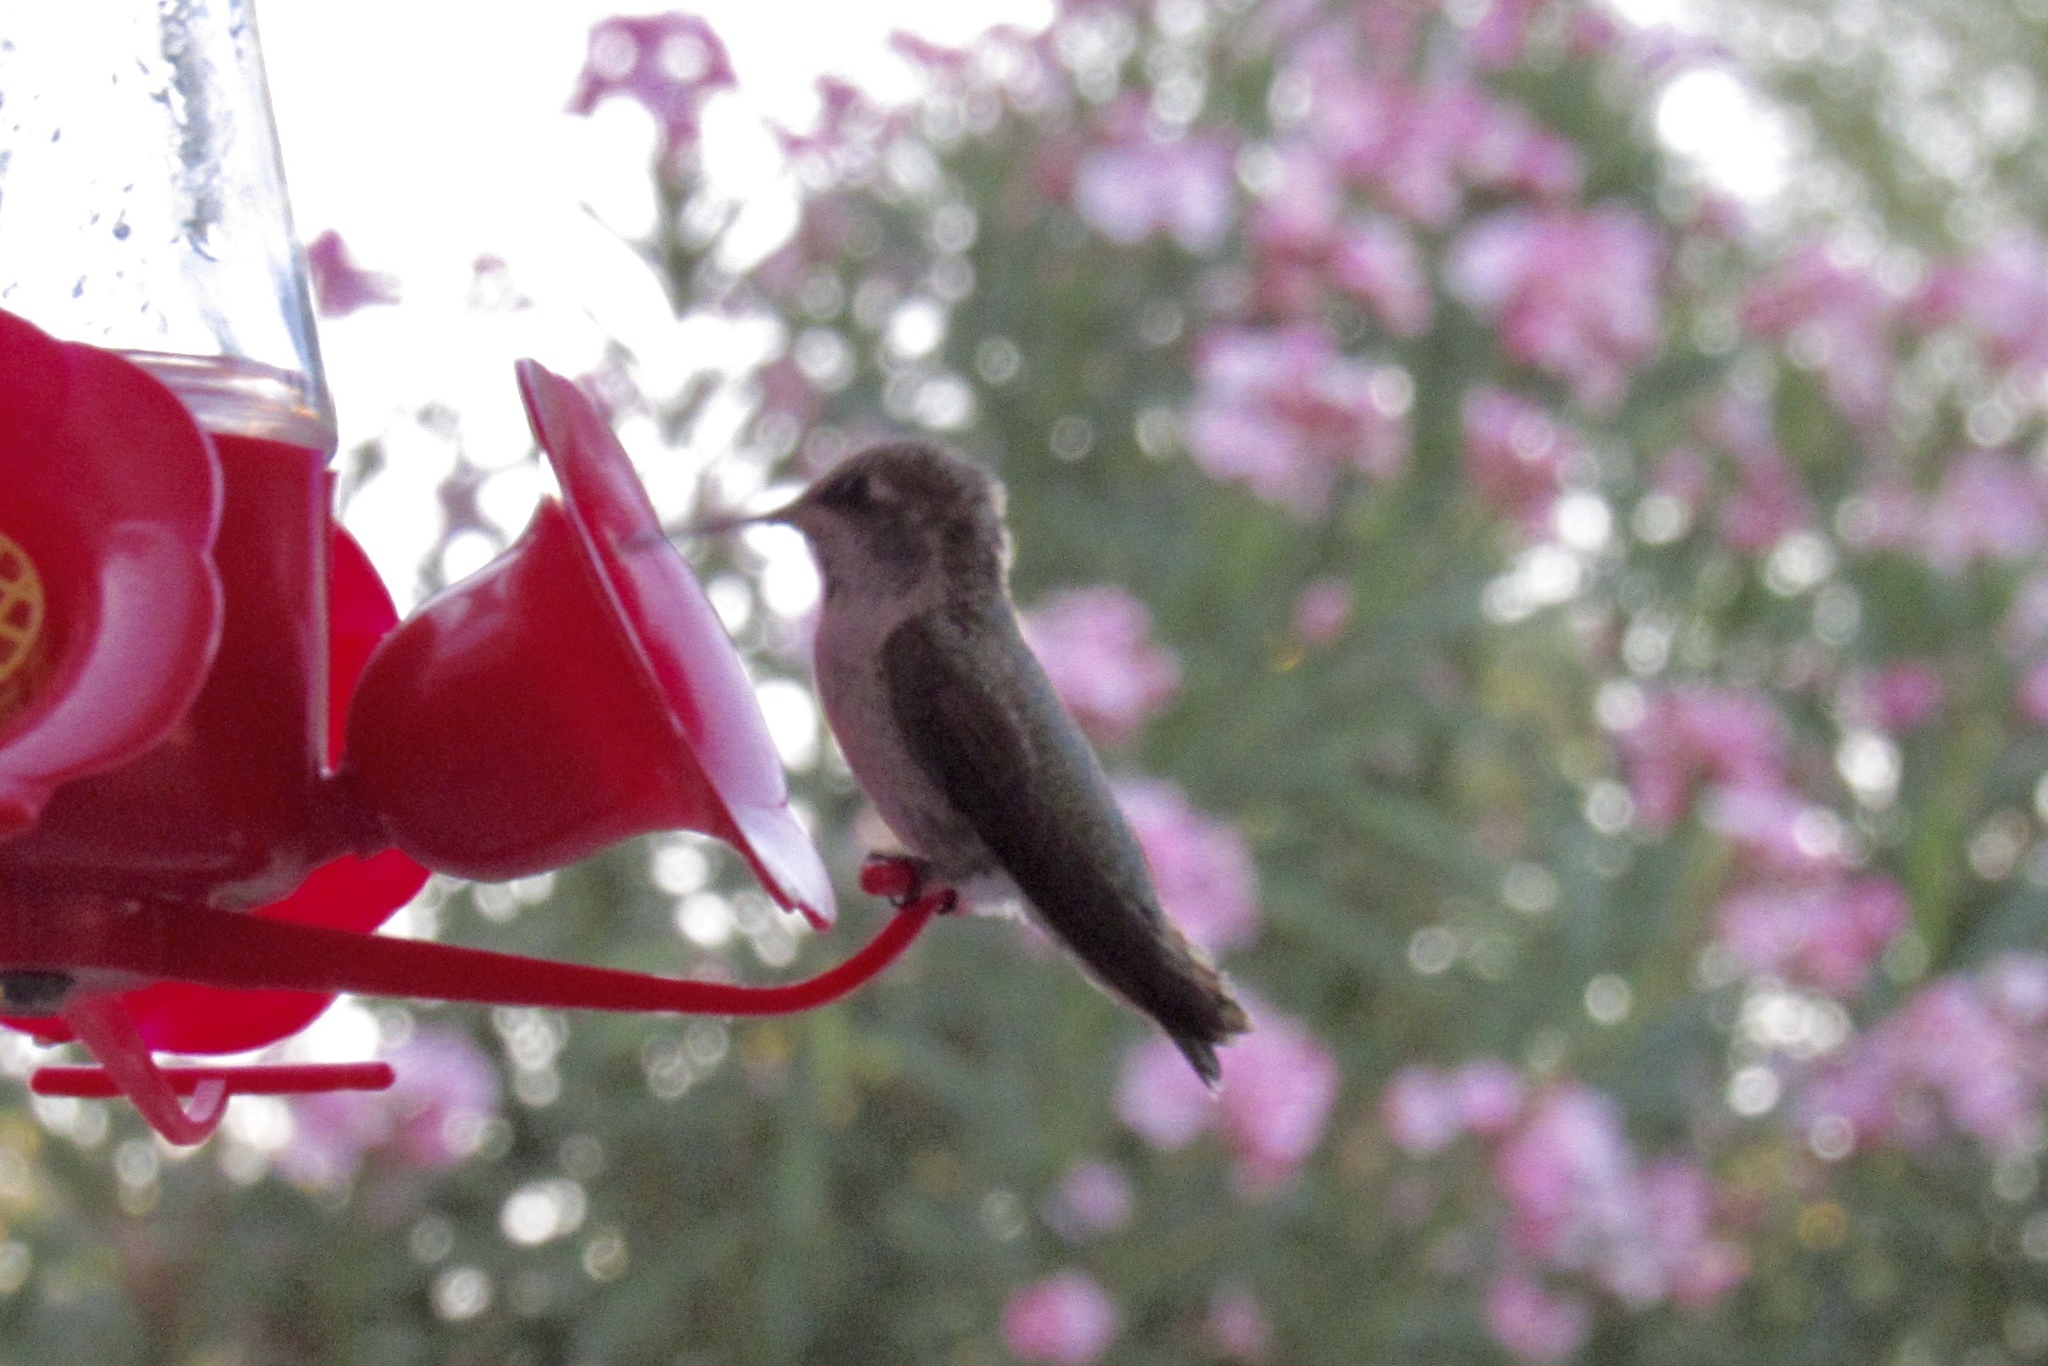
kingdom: Animalia
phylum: Chordata
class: Aves
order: Apodiformes
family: Trochilidae
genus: Calypte
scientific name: Calypte anna
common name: Anna's hummingbird
